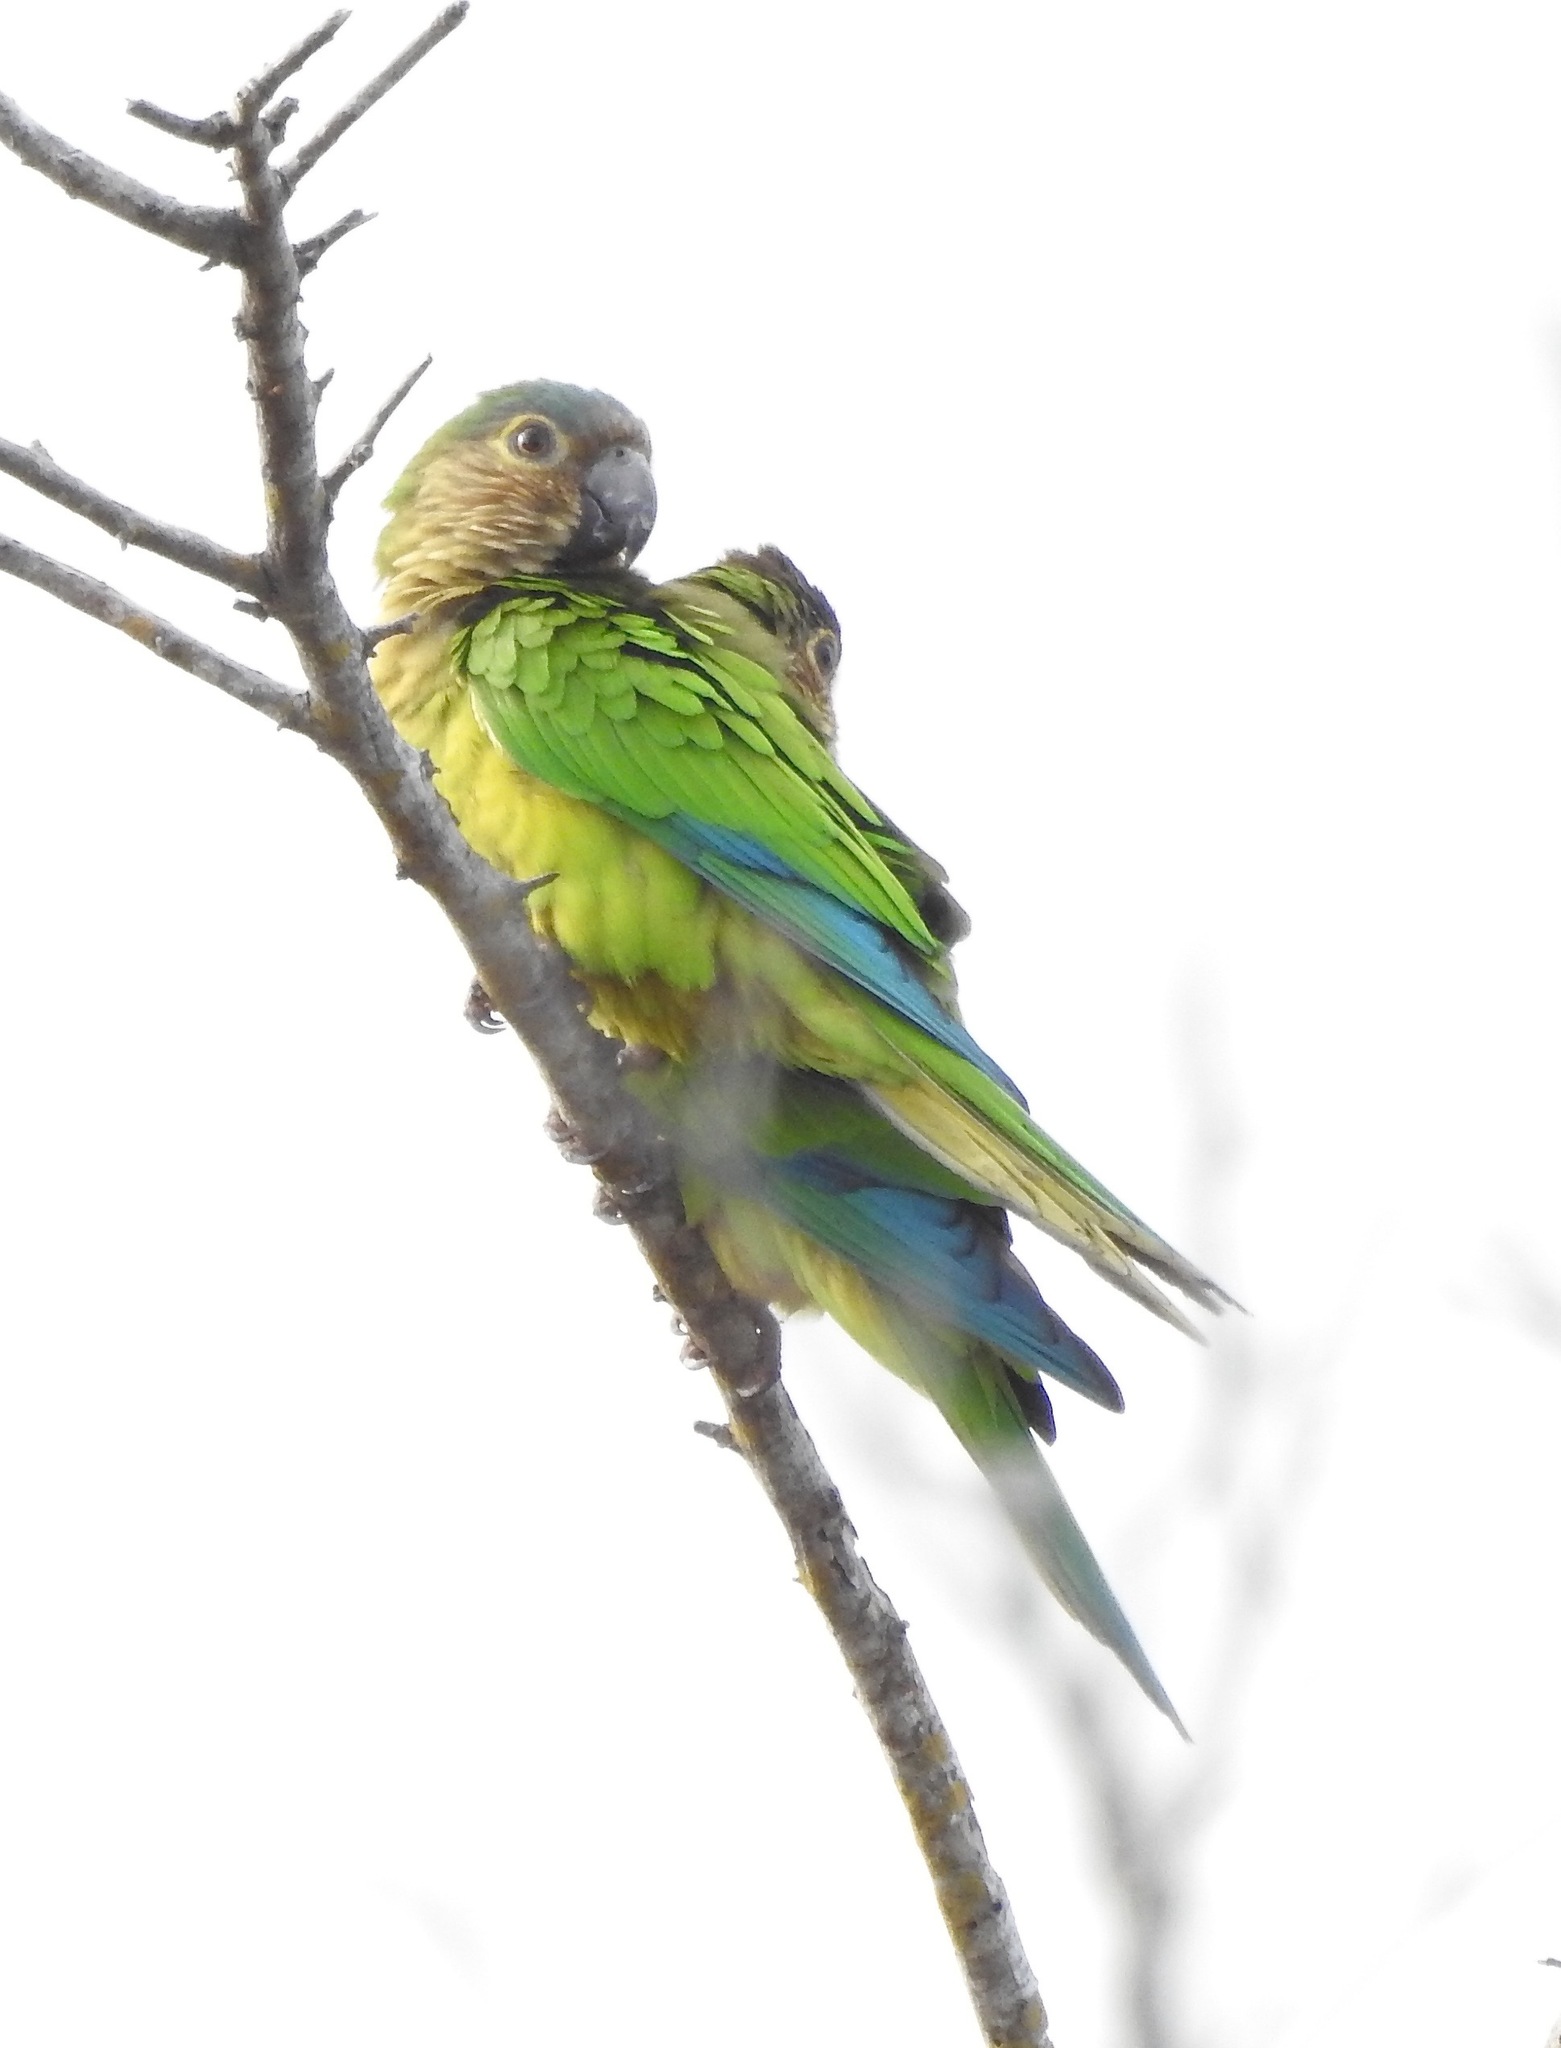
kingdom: Animalia
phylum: Chordata
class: Aves
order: Psittaciformes
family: Psittacidae
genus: Aratinga
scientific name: Aratinga pertinax
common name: Brown-throated parakeet
